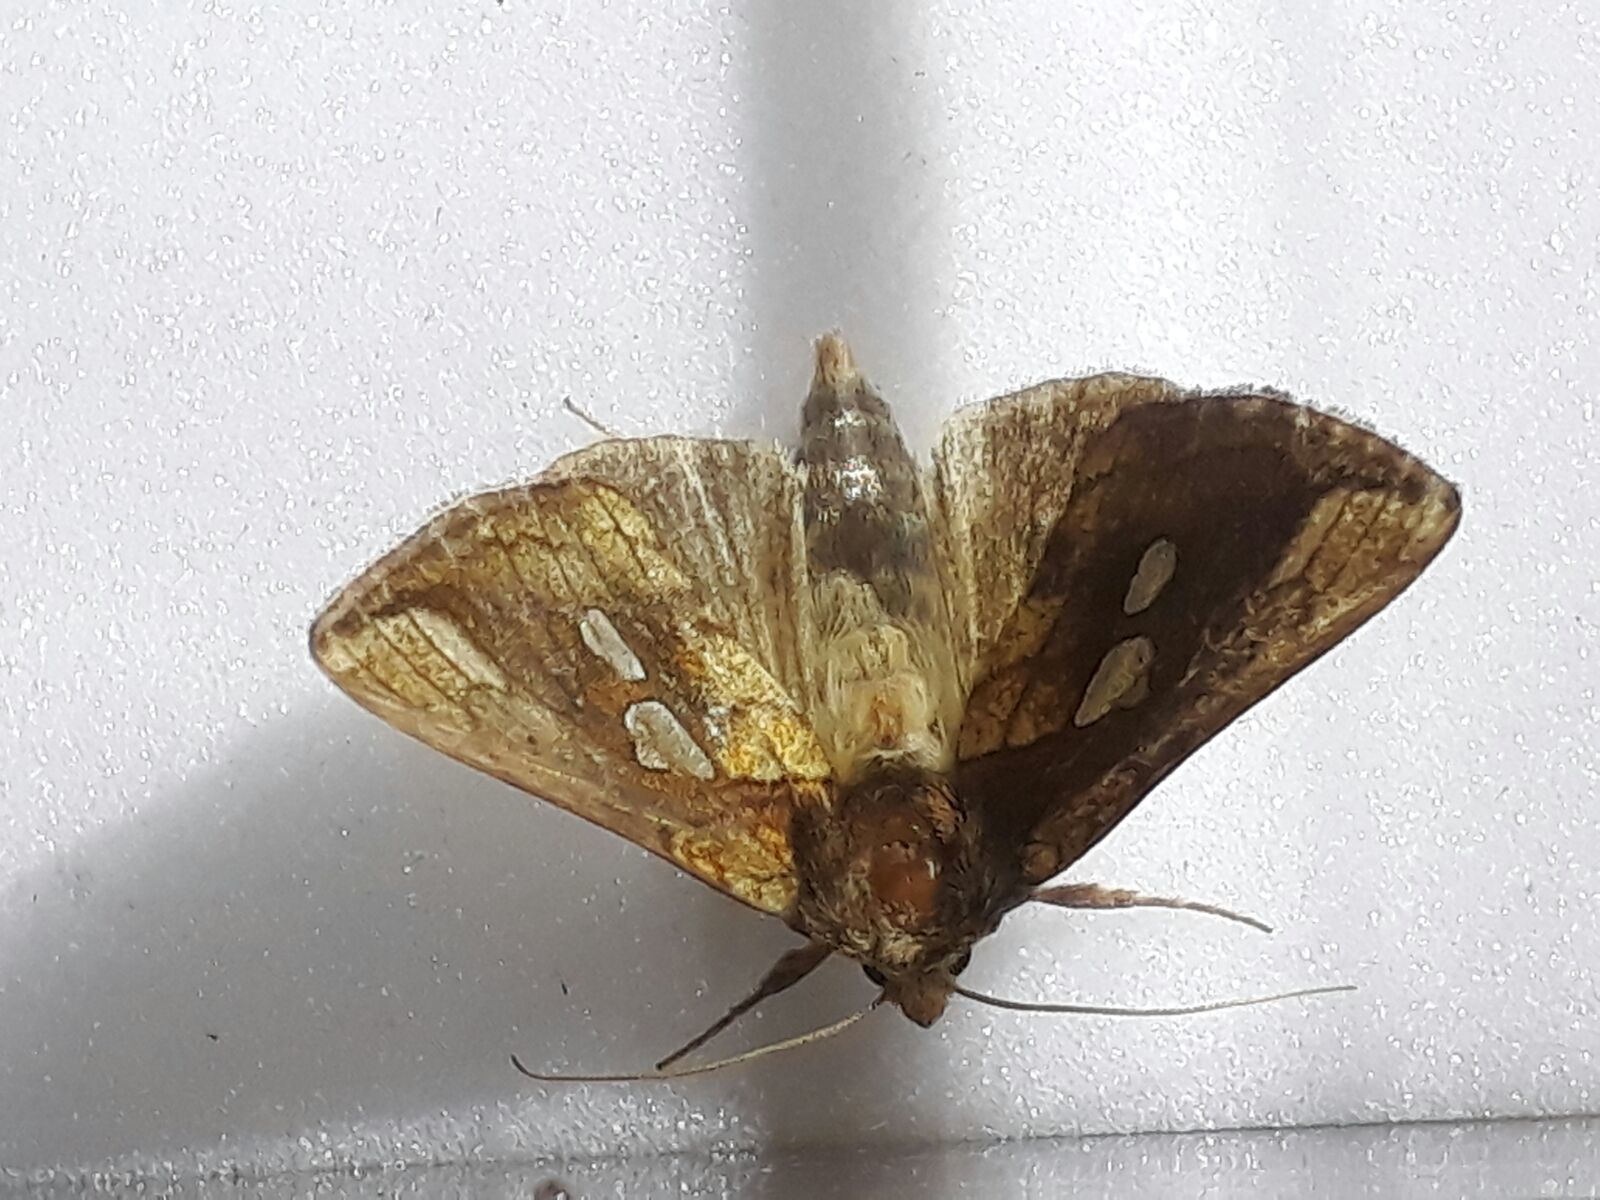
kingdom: Animalia
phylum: Arthropoda
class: Insecta
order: Lepidoptera
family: Noctuidae
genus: Plusia
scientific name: Plusia festucae
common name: Gold spot
